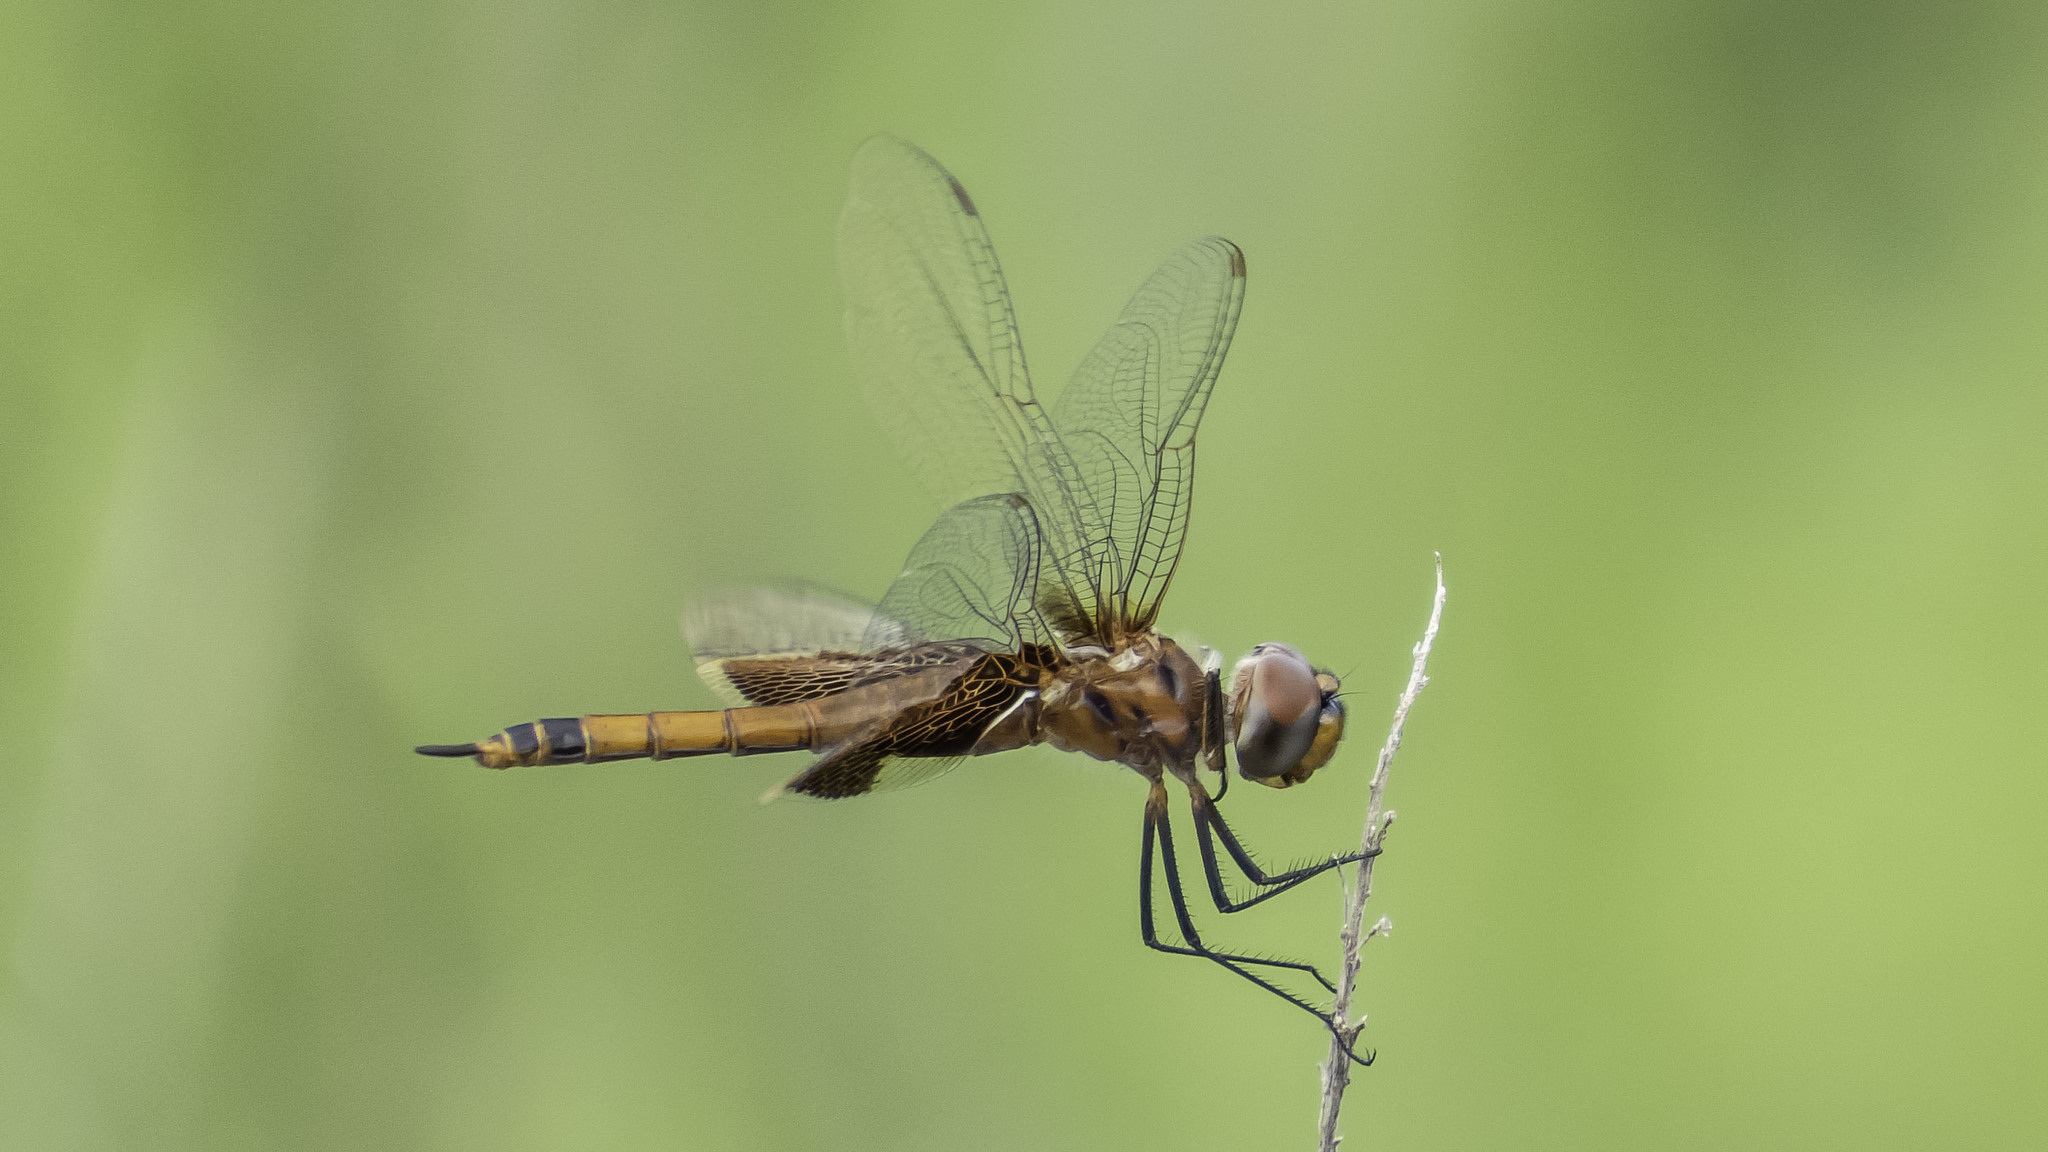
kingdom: Animalia
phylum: Arthropoda
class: Insecta
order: Odonata
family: Libellulidae
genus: Tramea
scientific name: Tramea carolina
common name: Carolina saddlebags
